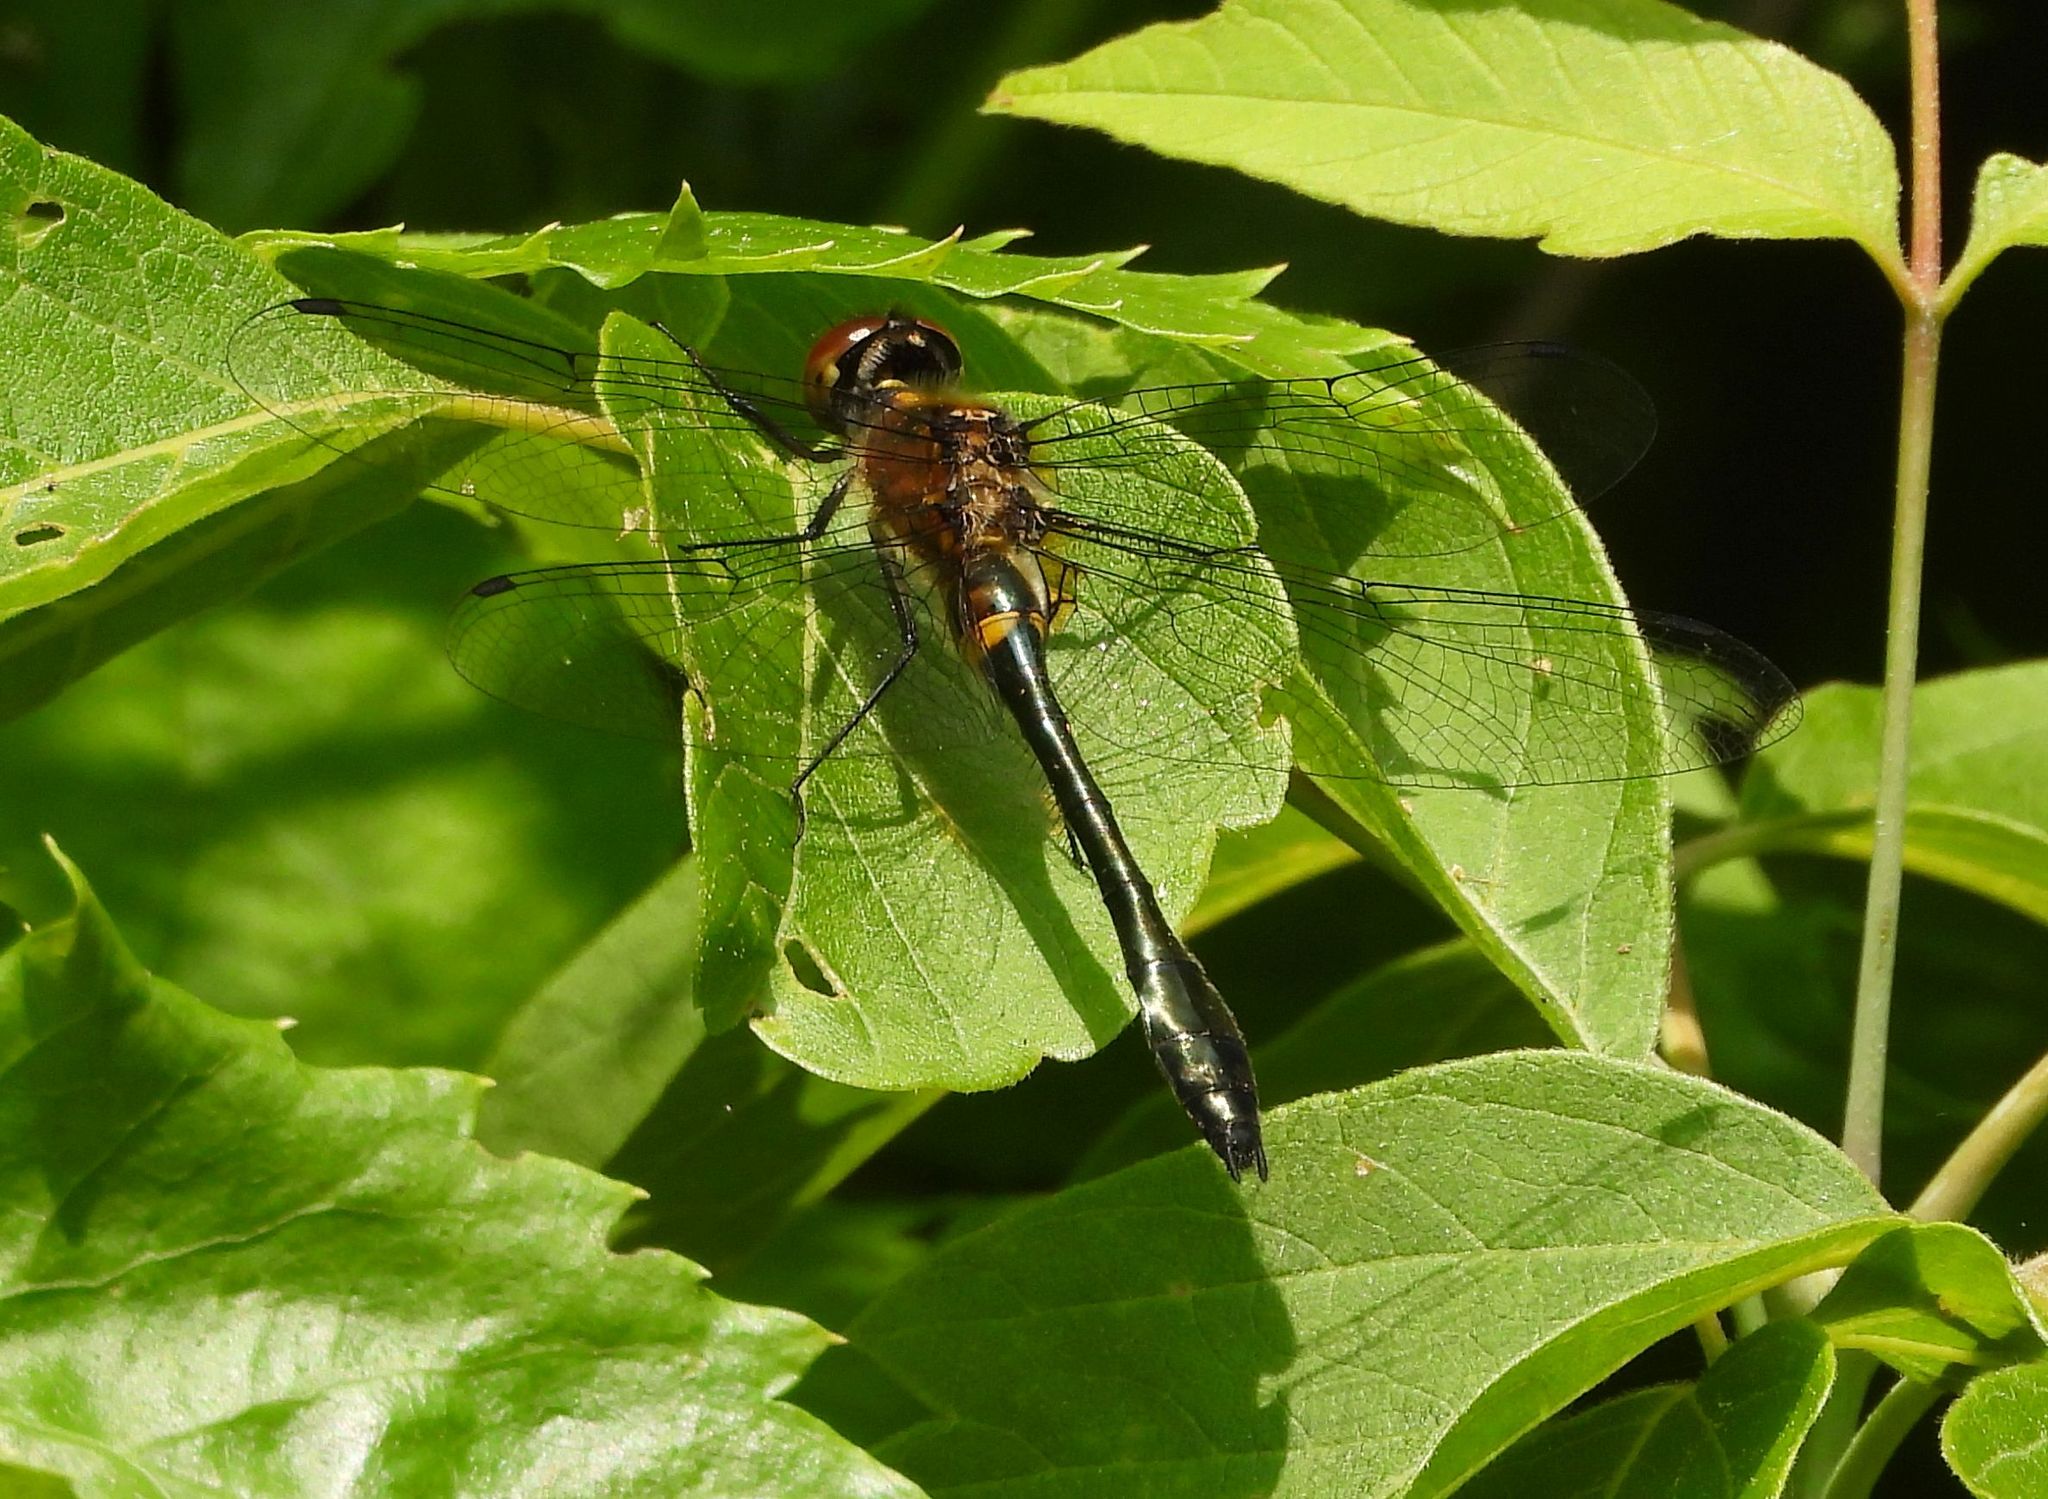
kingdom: Animalia
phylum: Arthropoda
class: Insecta
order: Odonata
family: Corduliidae
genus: Dorocordulia
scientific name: Dorocordulia libera
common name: Racket-tailed emerald
